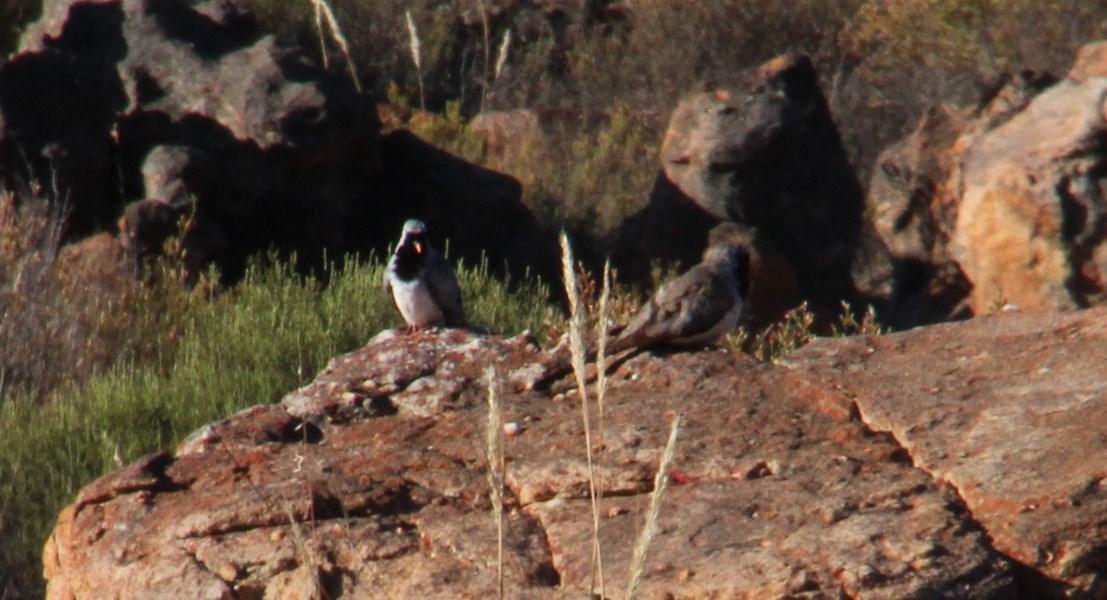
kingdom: Animalia
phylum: Chordata
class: Aves
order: Columbiformes
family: Columbidae
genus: Oena
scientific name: Oena capensis
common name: Namaqua dove
